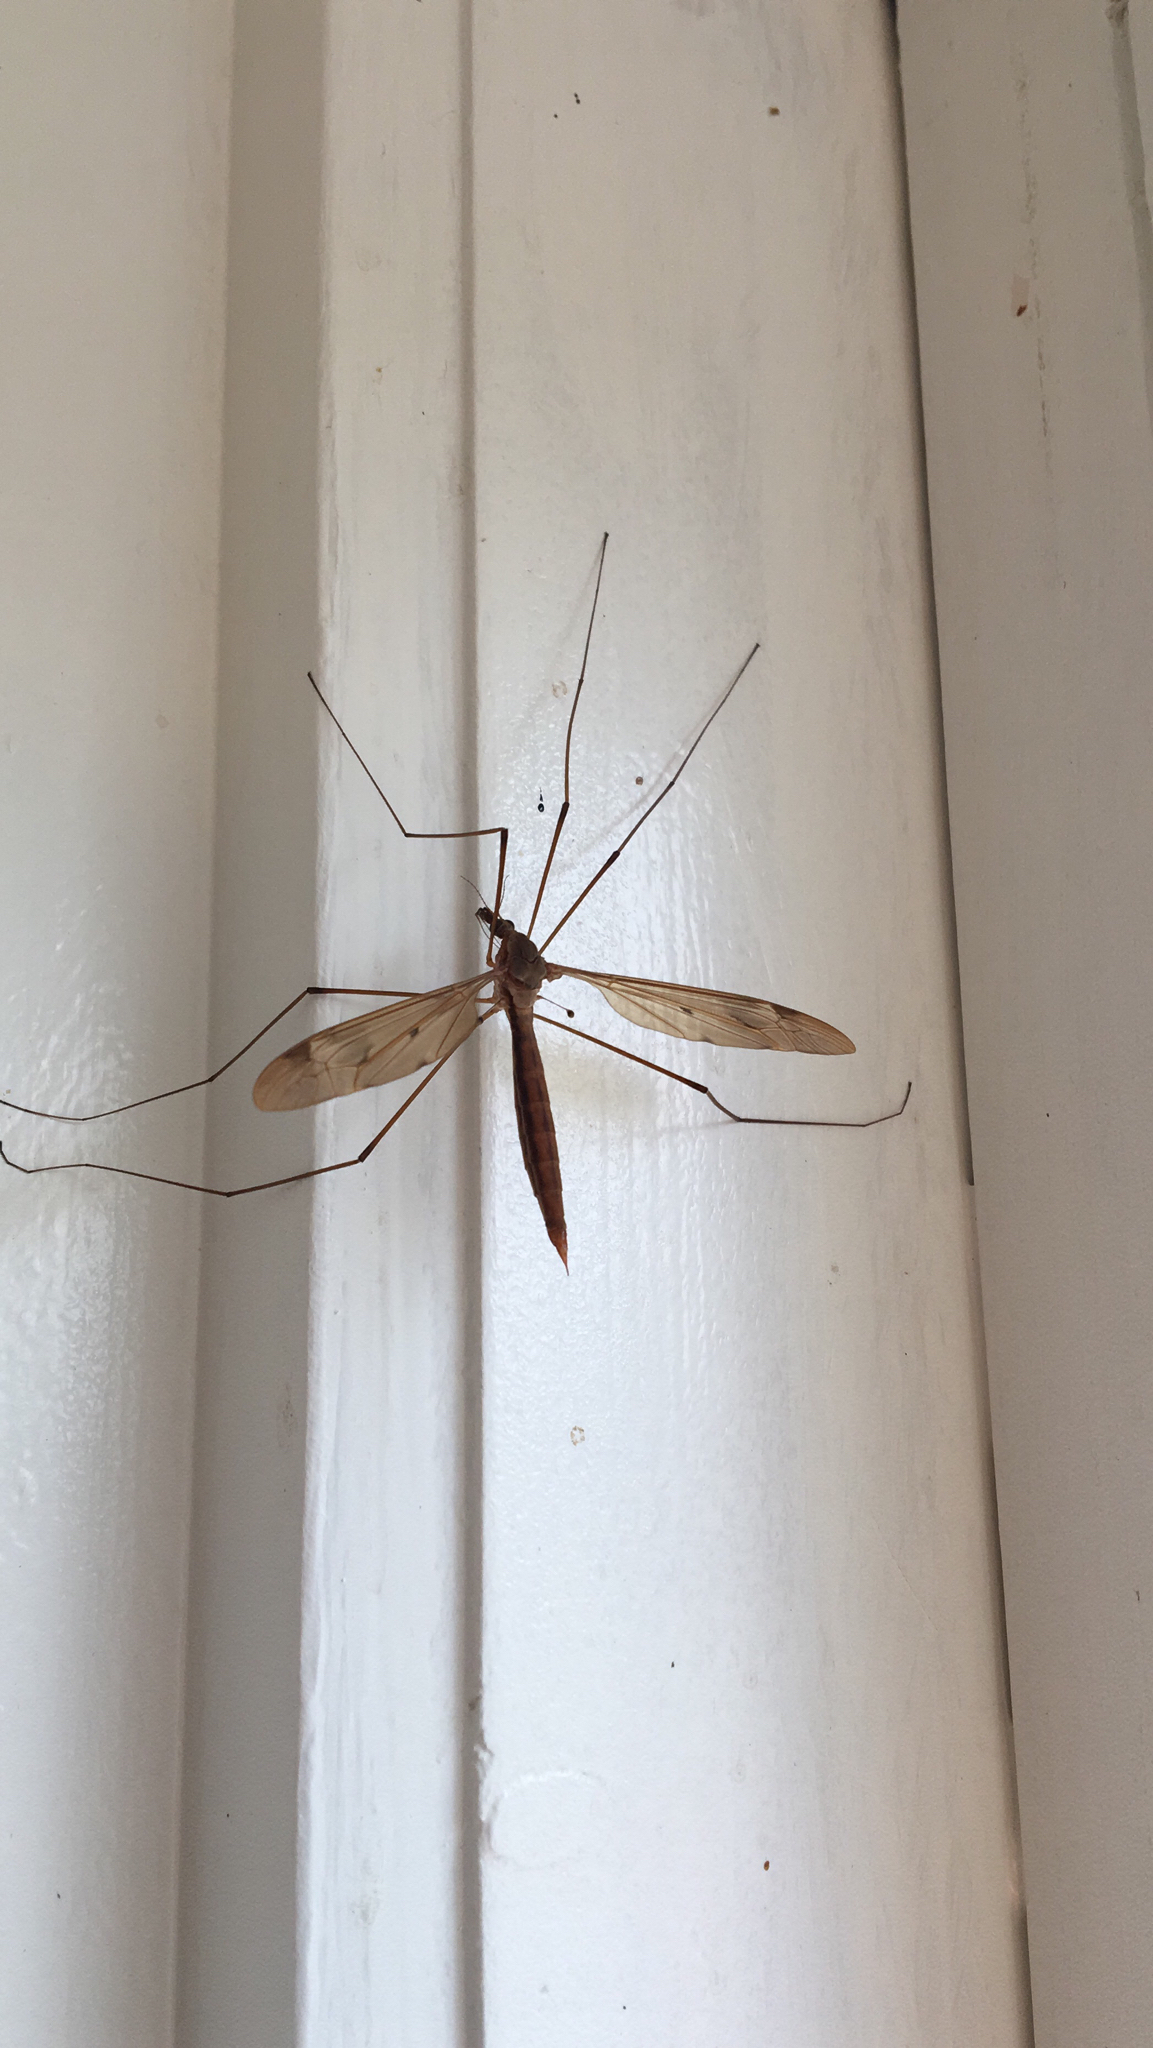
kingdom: Animalia
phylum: Arthropoda
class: Insecta
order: Diptera
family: Tipulidae
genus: Tipula
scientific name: Tipula fulvipennis
